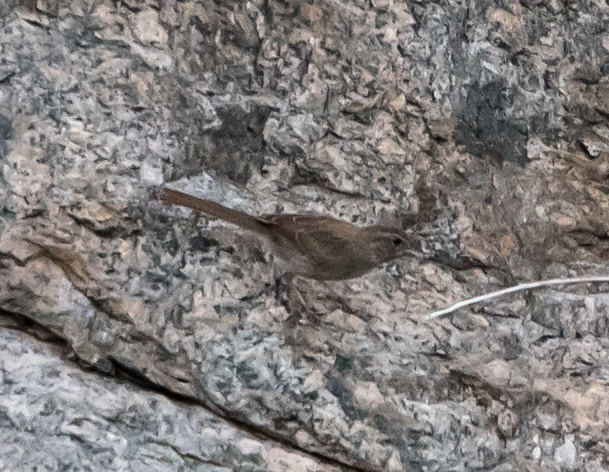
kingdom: Animalia
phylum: Chordata
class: Aves
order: Passeriformes
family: Passerellidae
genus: Aimophila
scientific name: Aimophila ruficeps
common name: Rufous-crowned sparrow
